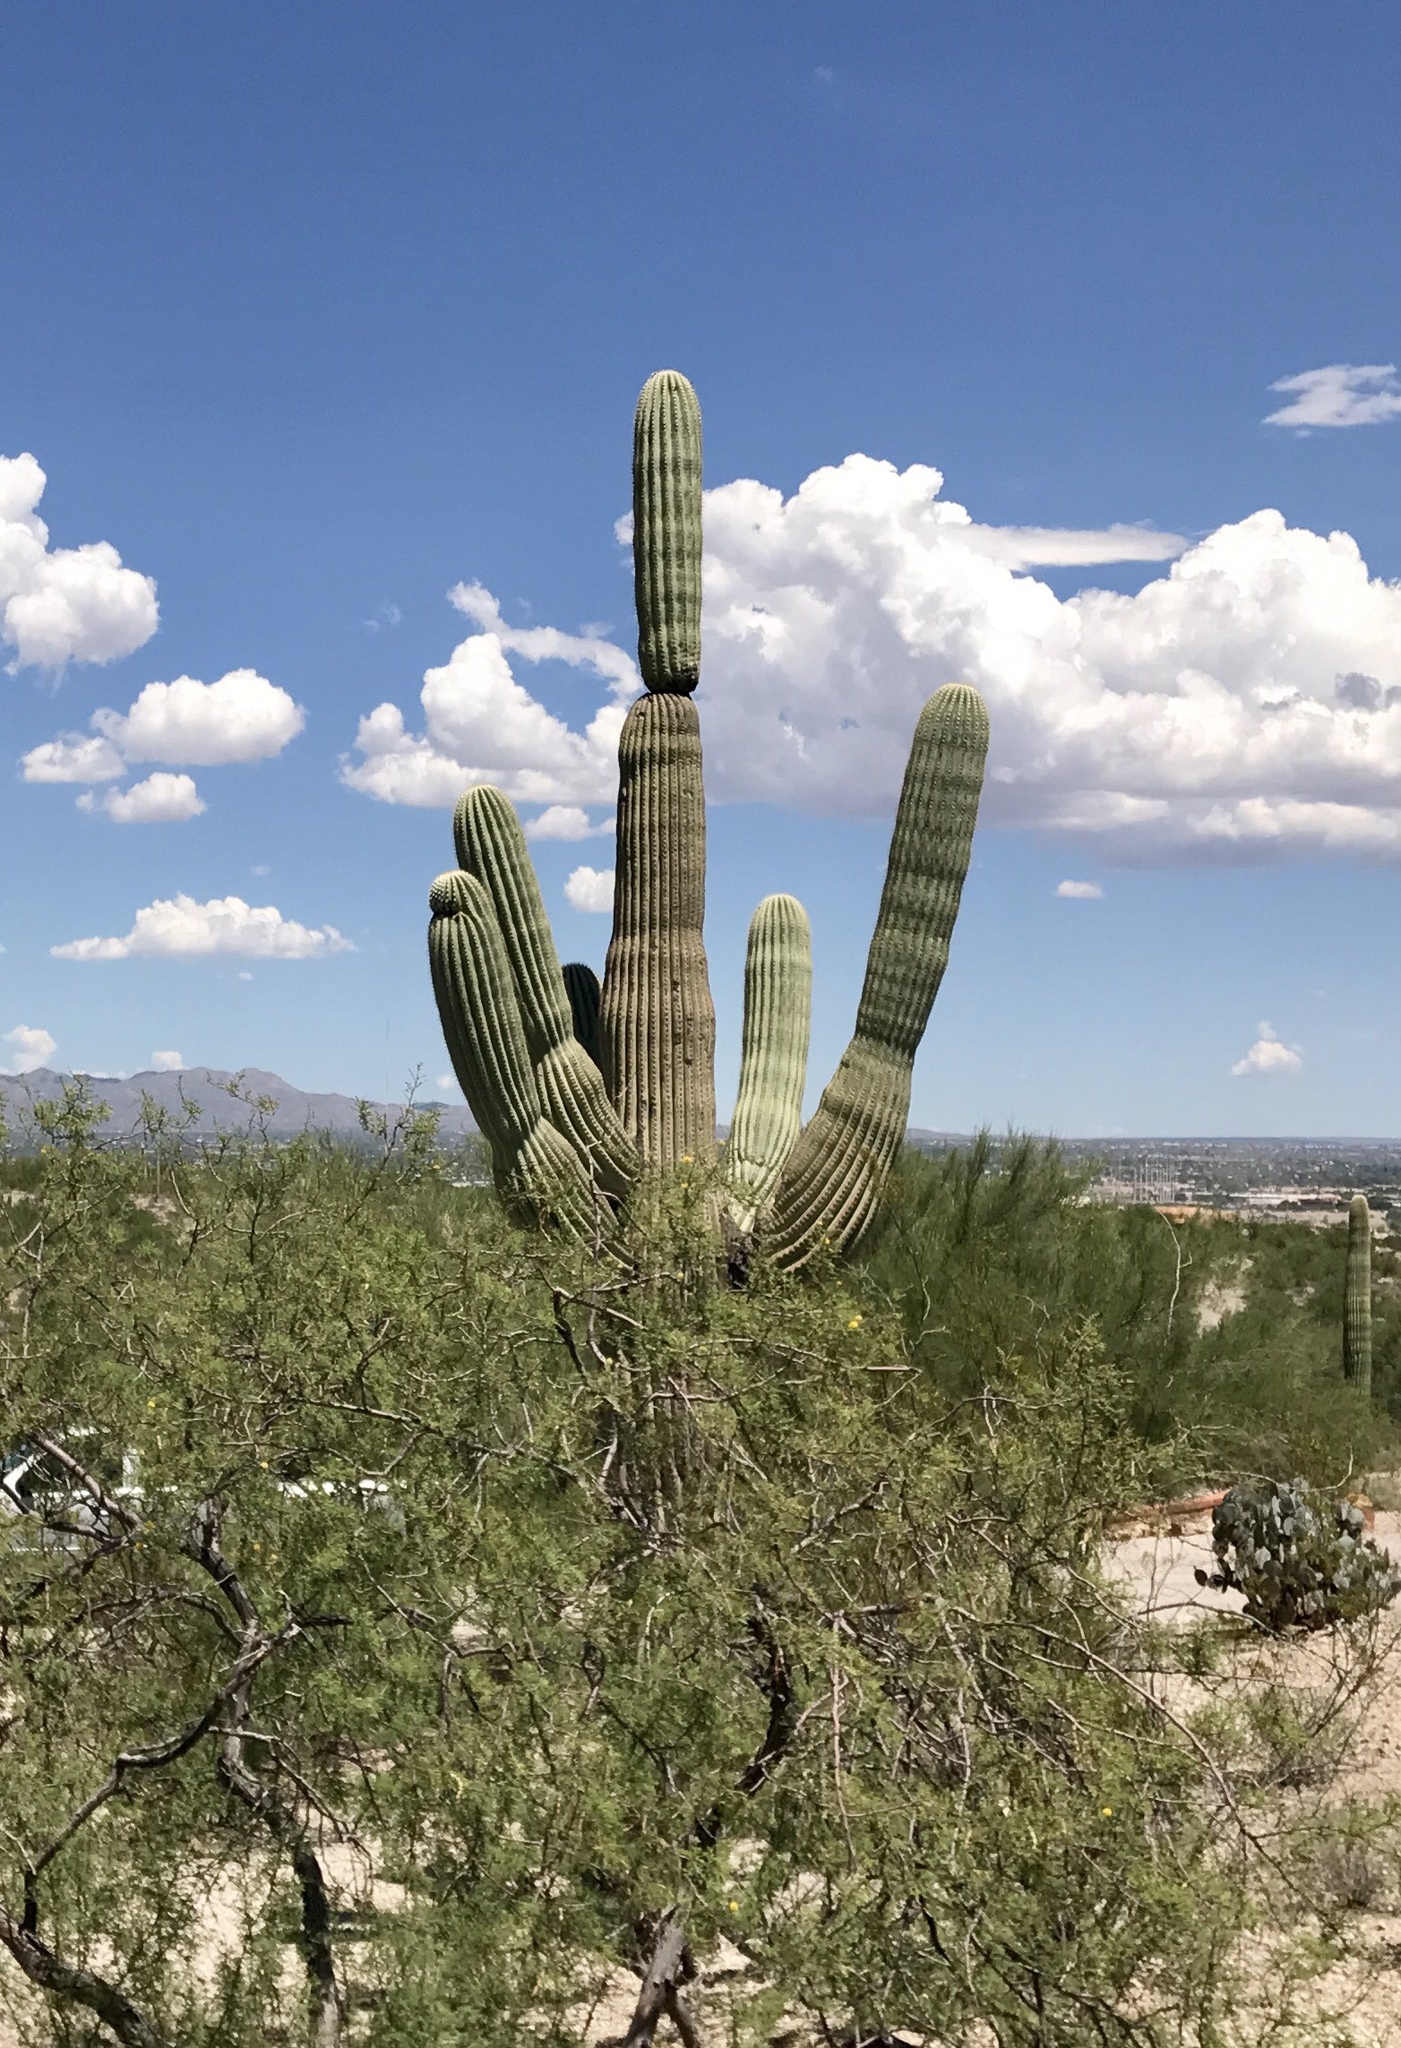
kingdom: Plantae
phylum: Tracheophyta
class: Magnoliopsida
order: Caryophyllales
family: Cactaceae
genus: Carnegiea
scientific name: Carnegiea gigantea
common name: Saguaro
